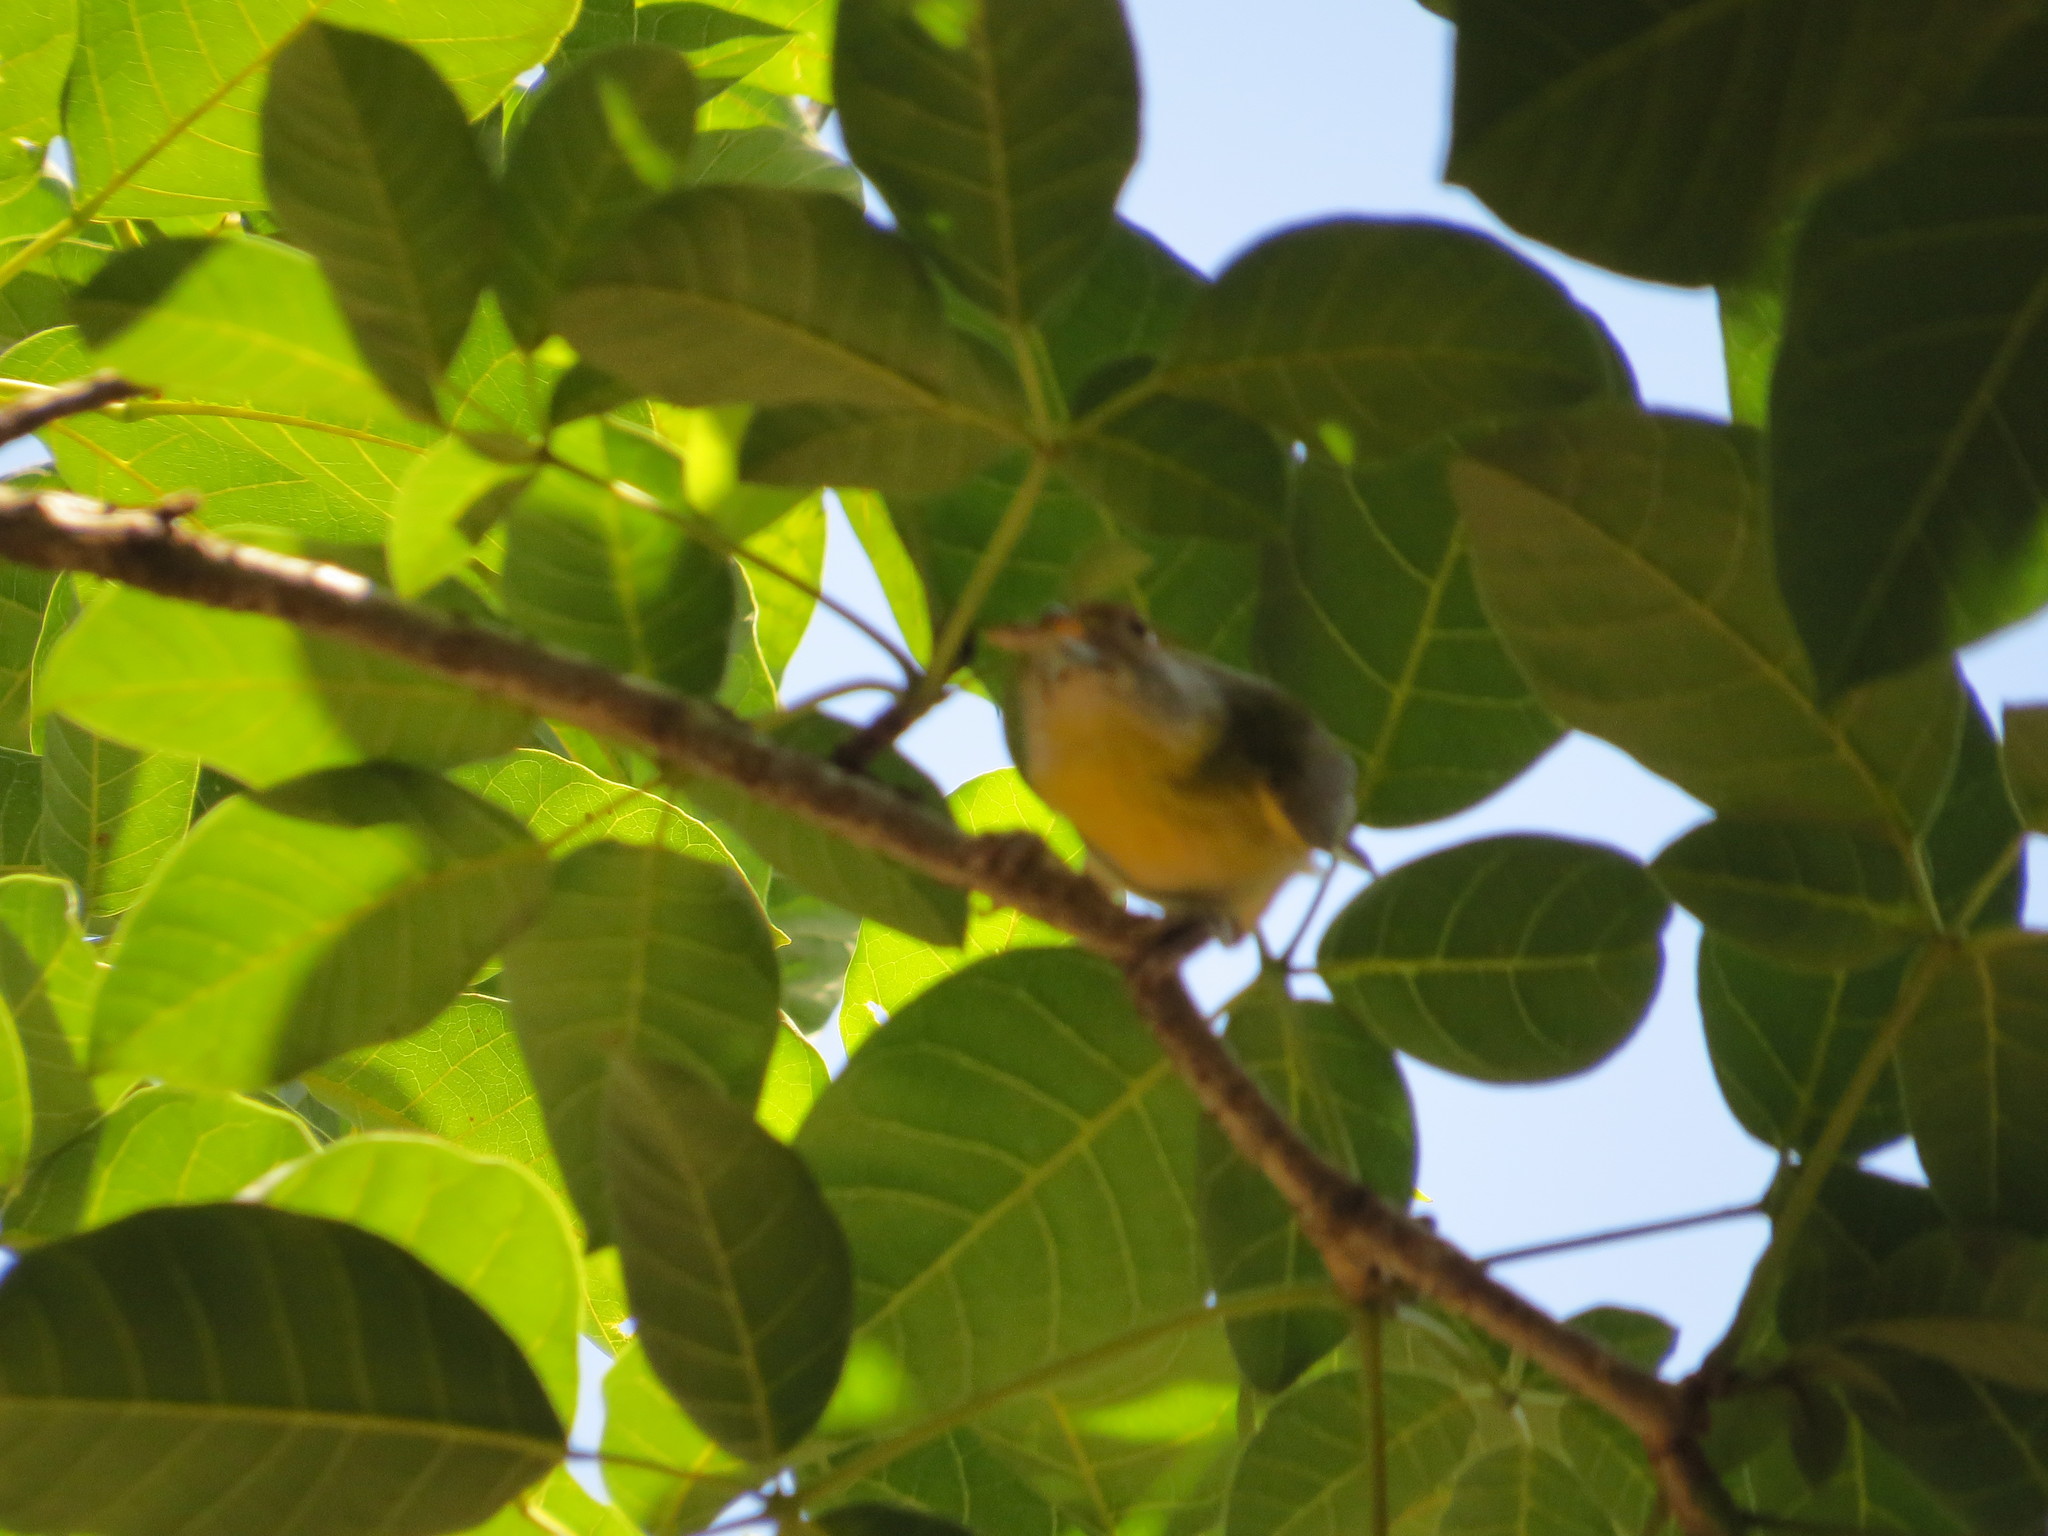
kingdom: Animalia
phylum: Chordata
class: Aves
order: Passeriformes
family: Vireonidae
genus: Cyclarhis
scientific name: Cyclarhis gujanensis
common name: Rufous-browed peppershrike
